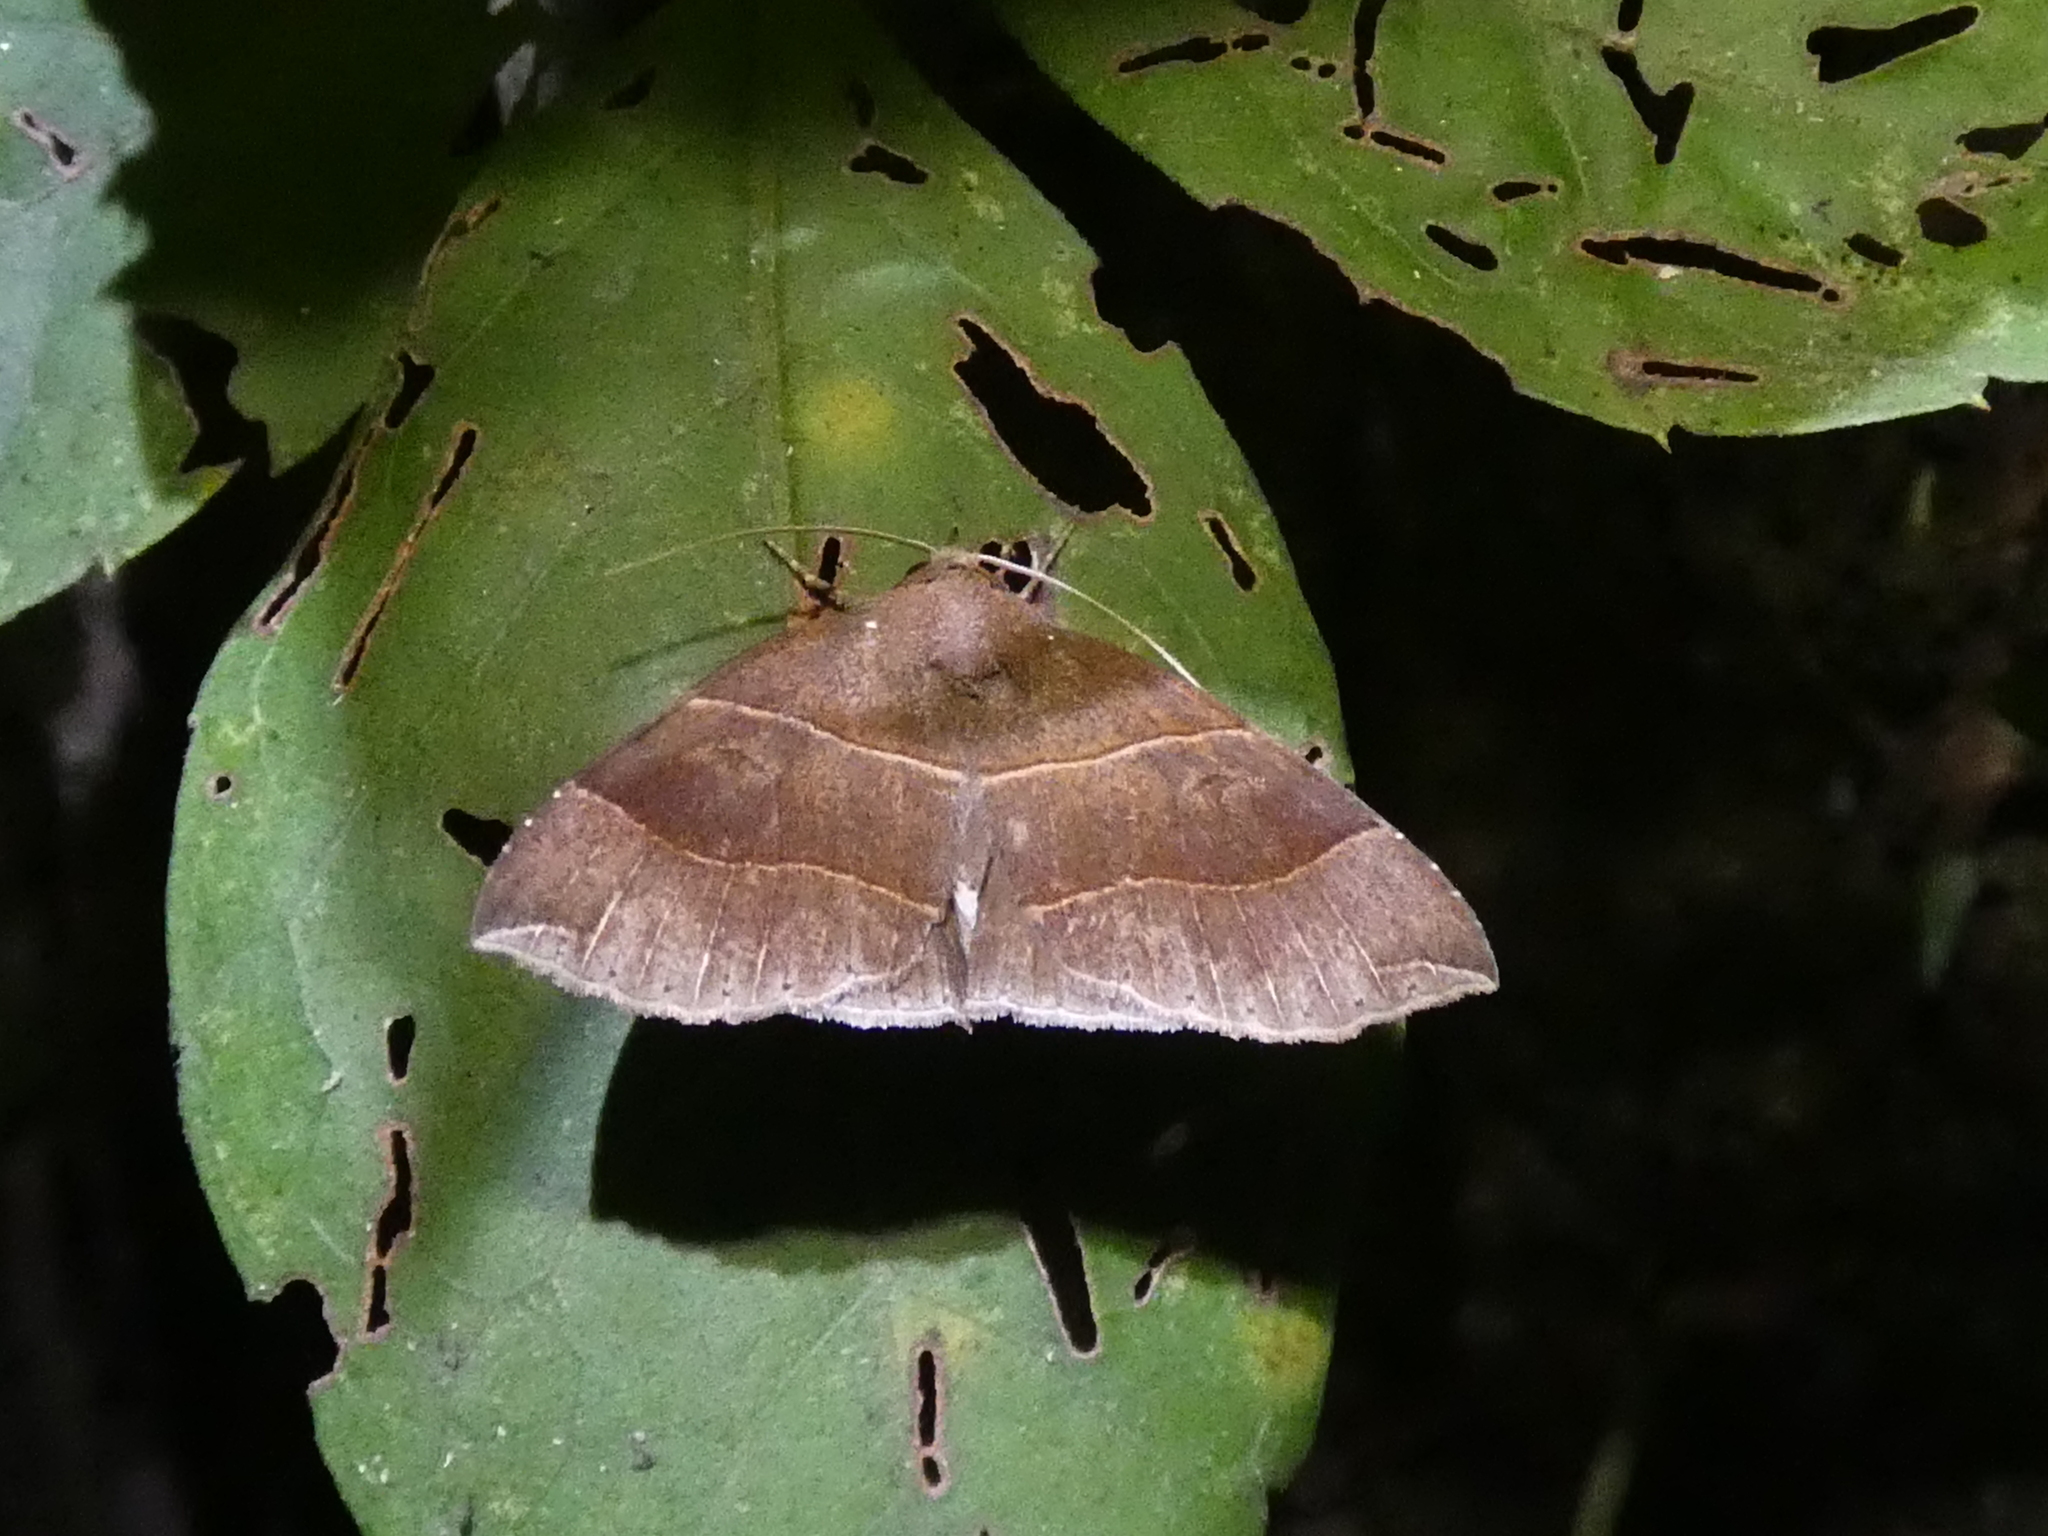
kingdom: Animalia
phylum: Arthropoda
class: Insecta
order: Lepidoptera
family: Erebidae
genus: Parallelia
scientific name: Parallelia bistriaris
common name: Maple looper moth
